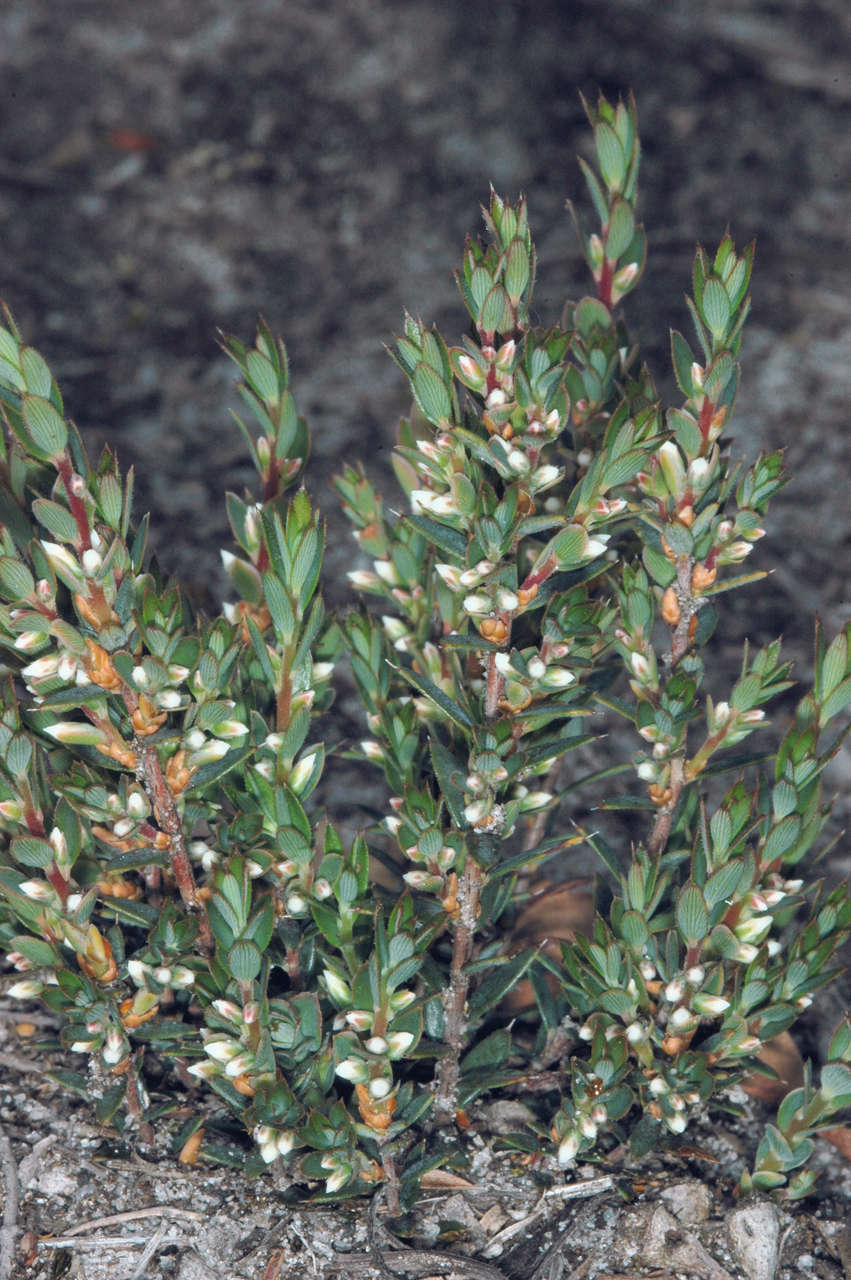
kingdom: Plantae
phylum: Tracheophyta
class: Magnoliopsida
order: Ericales
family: Ericaceae
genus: Brachyloma
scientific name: Brachyloma ciliatum
